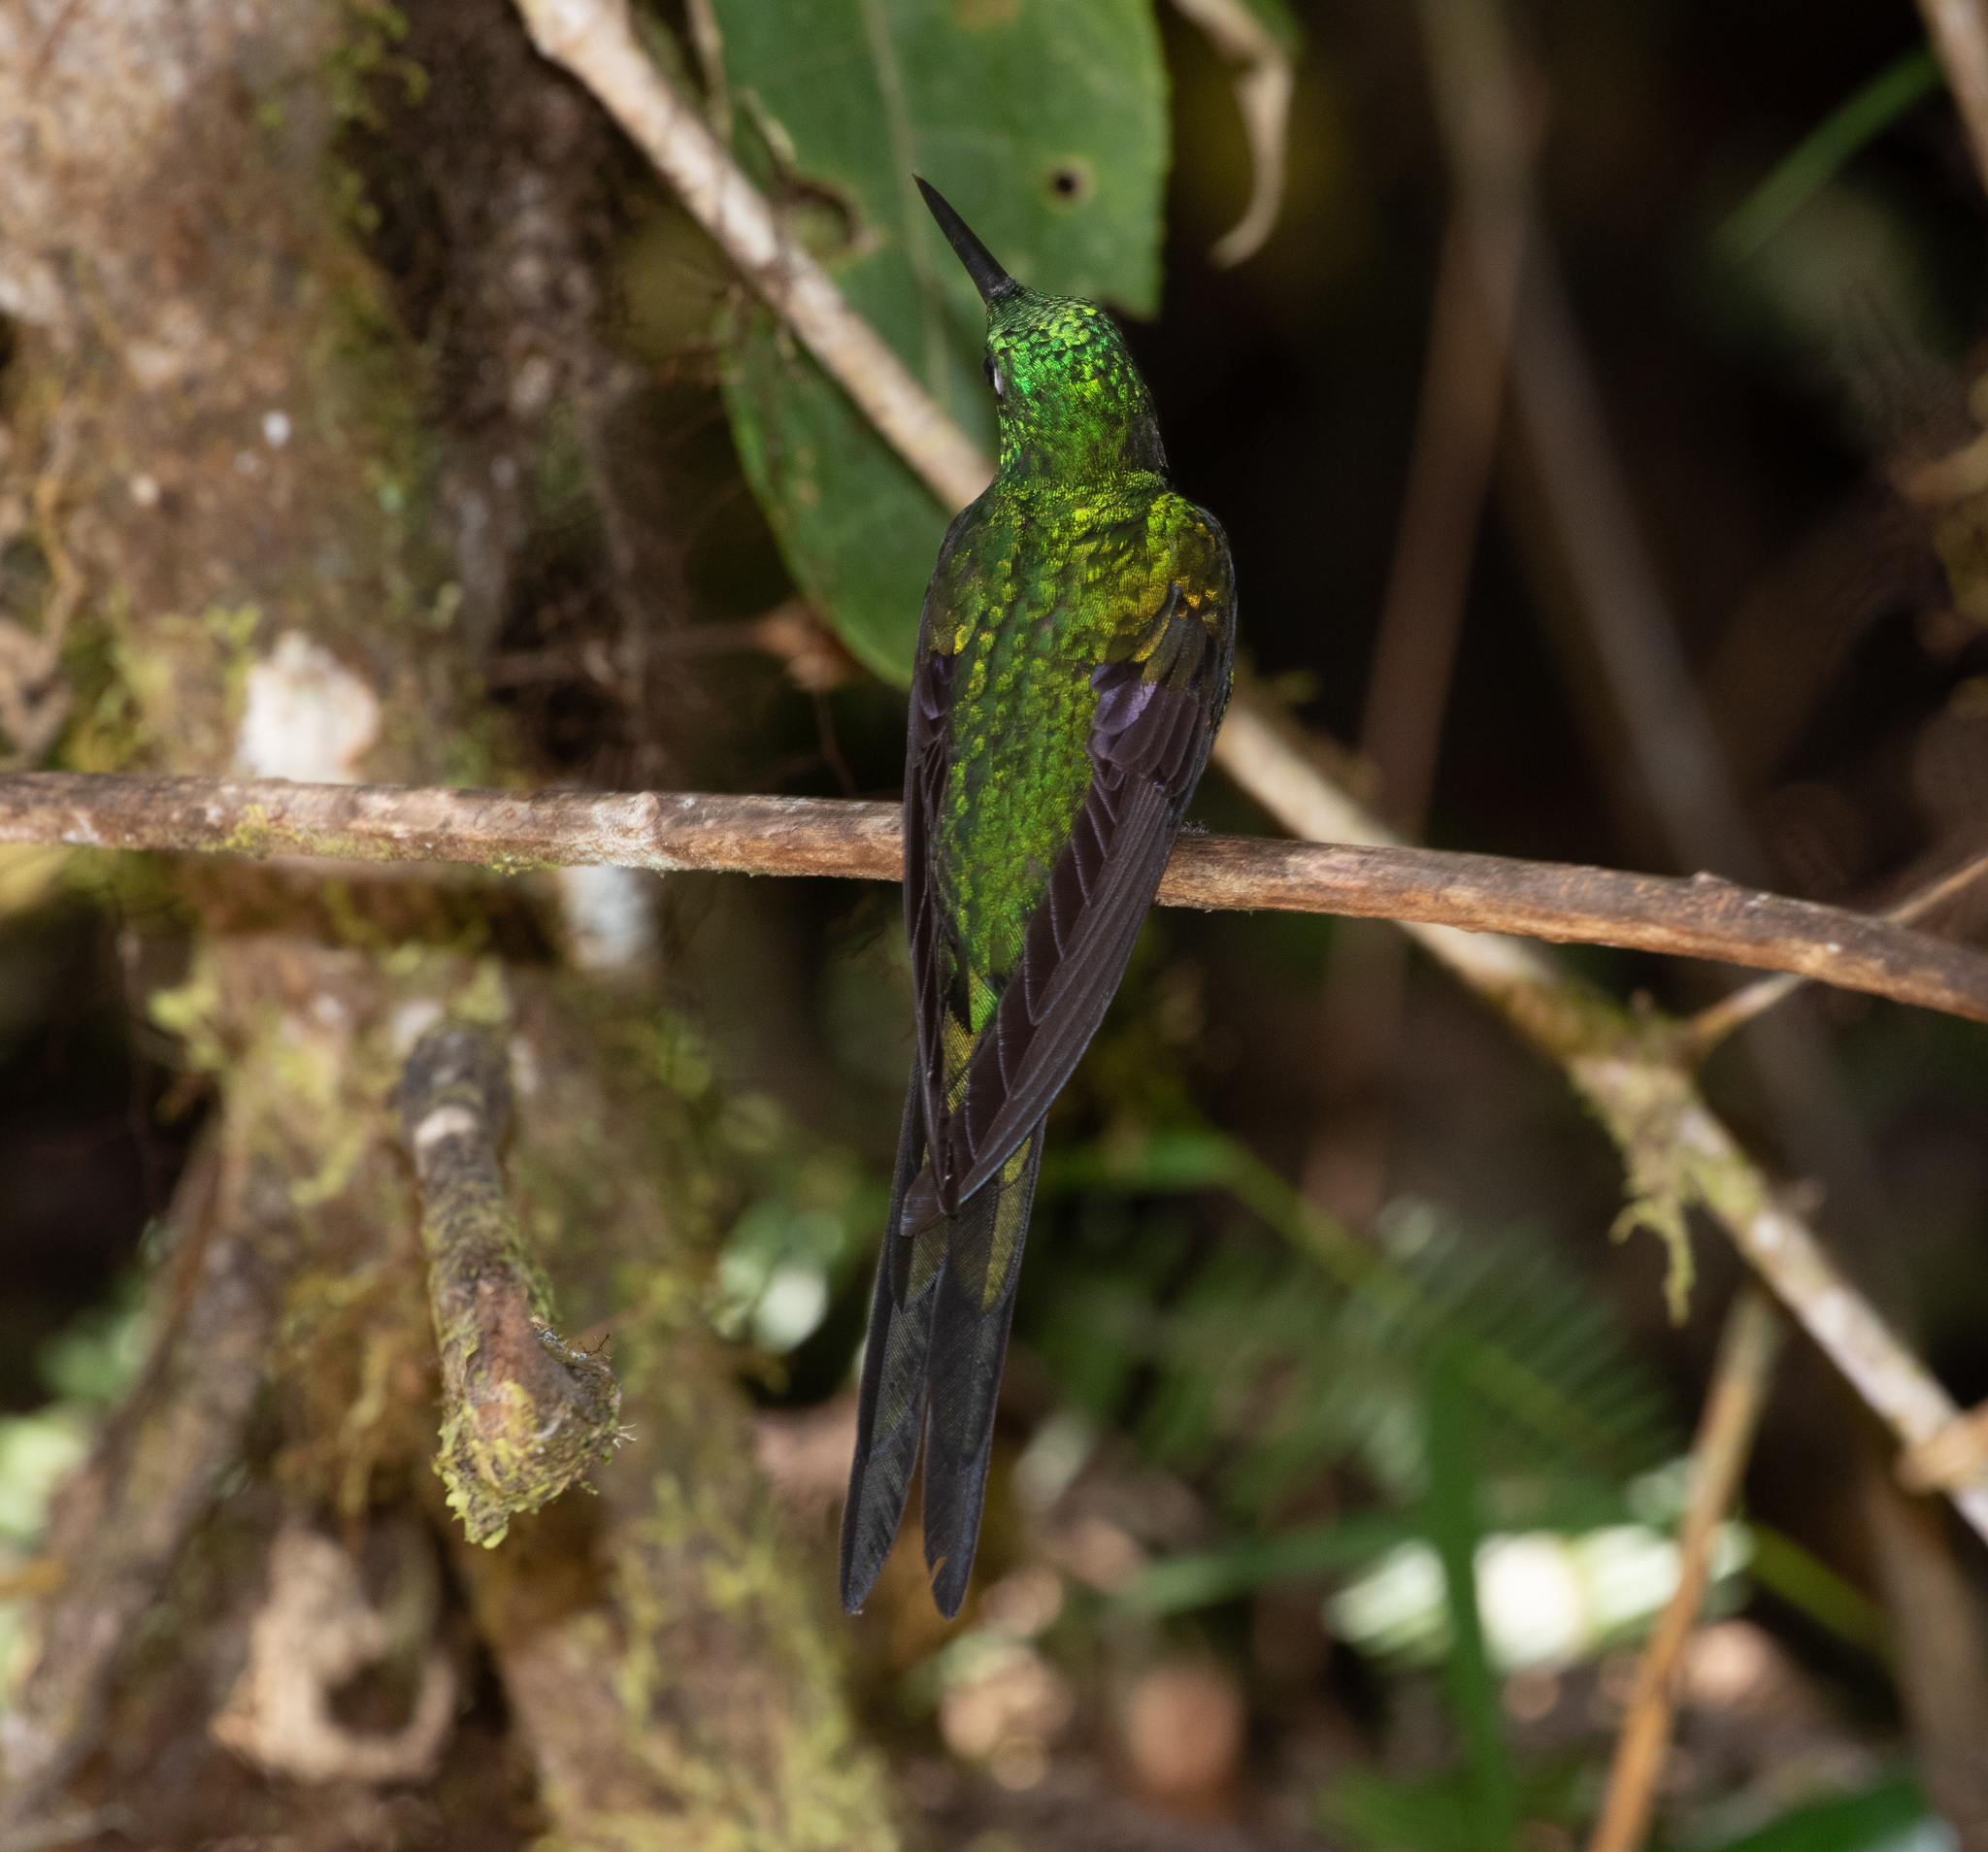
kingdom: Animalia
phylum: Chordata
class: Aves
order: Apodiformes
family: Trochilidae
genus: Heliodoxa
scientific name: Heliodoxa imperatrix
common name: Empress brilliant
